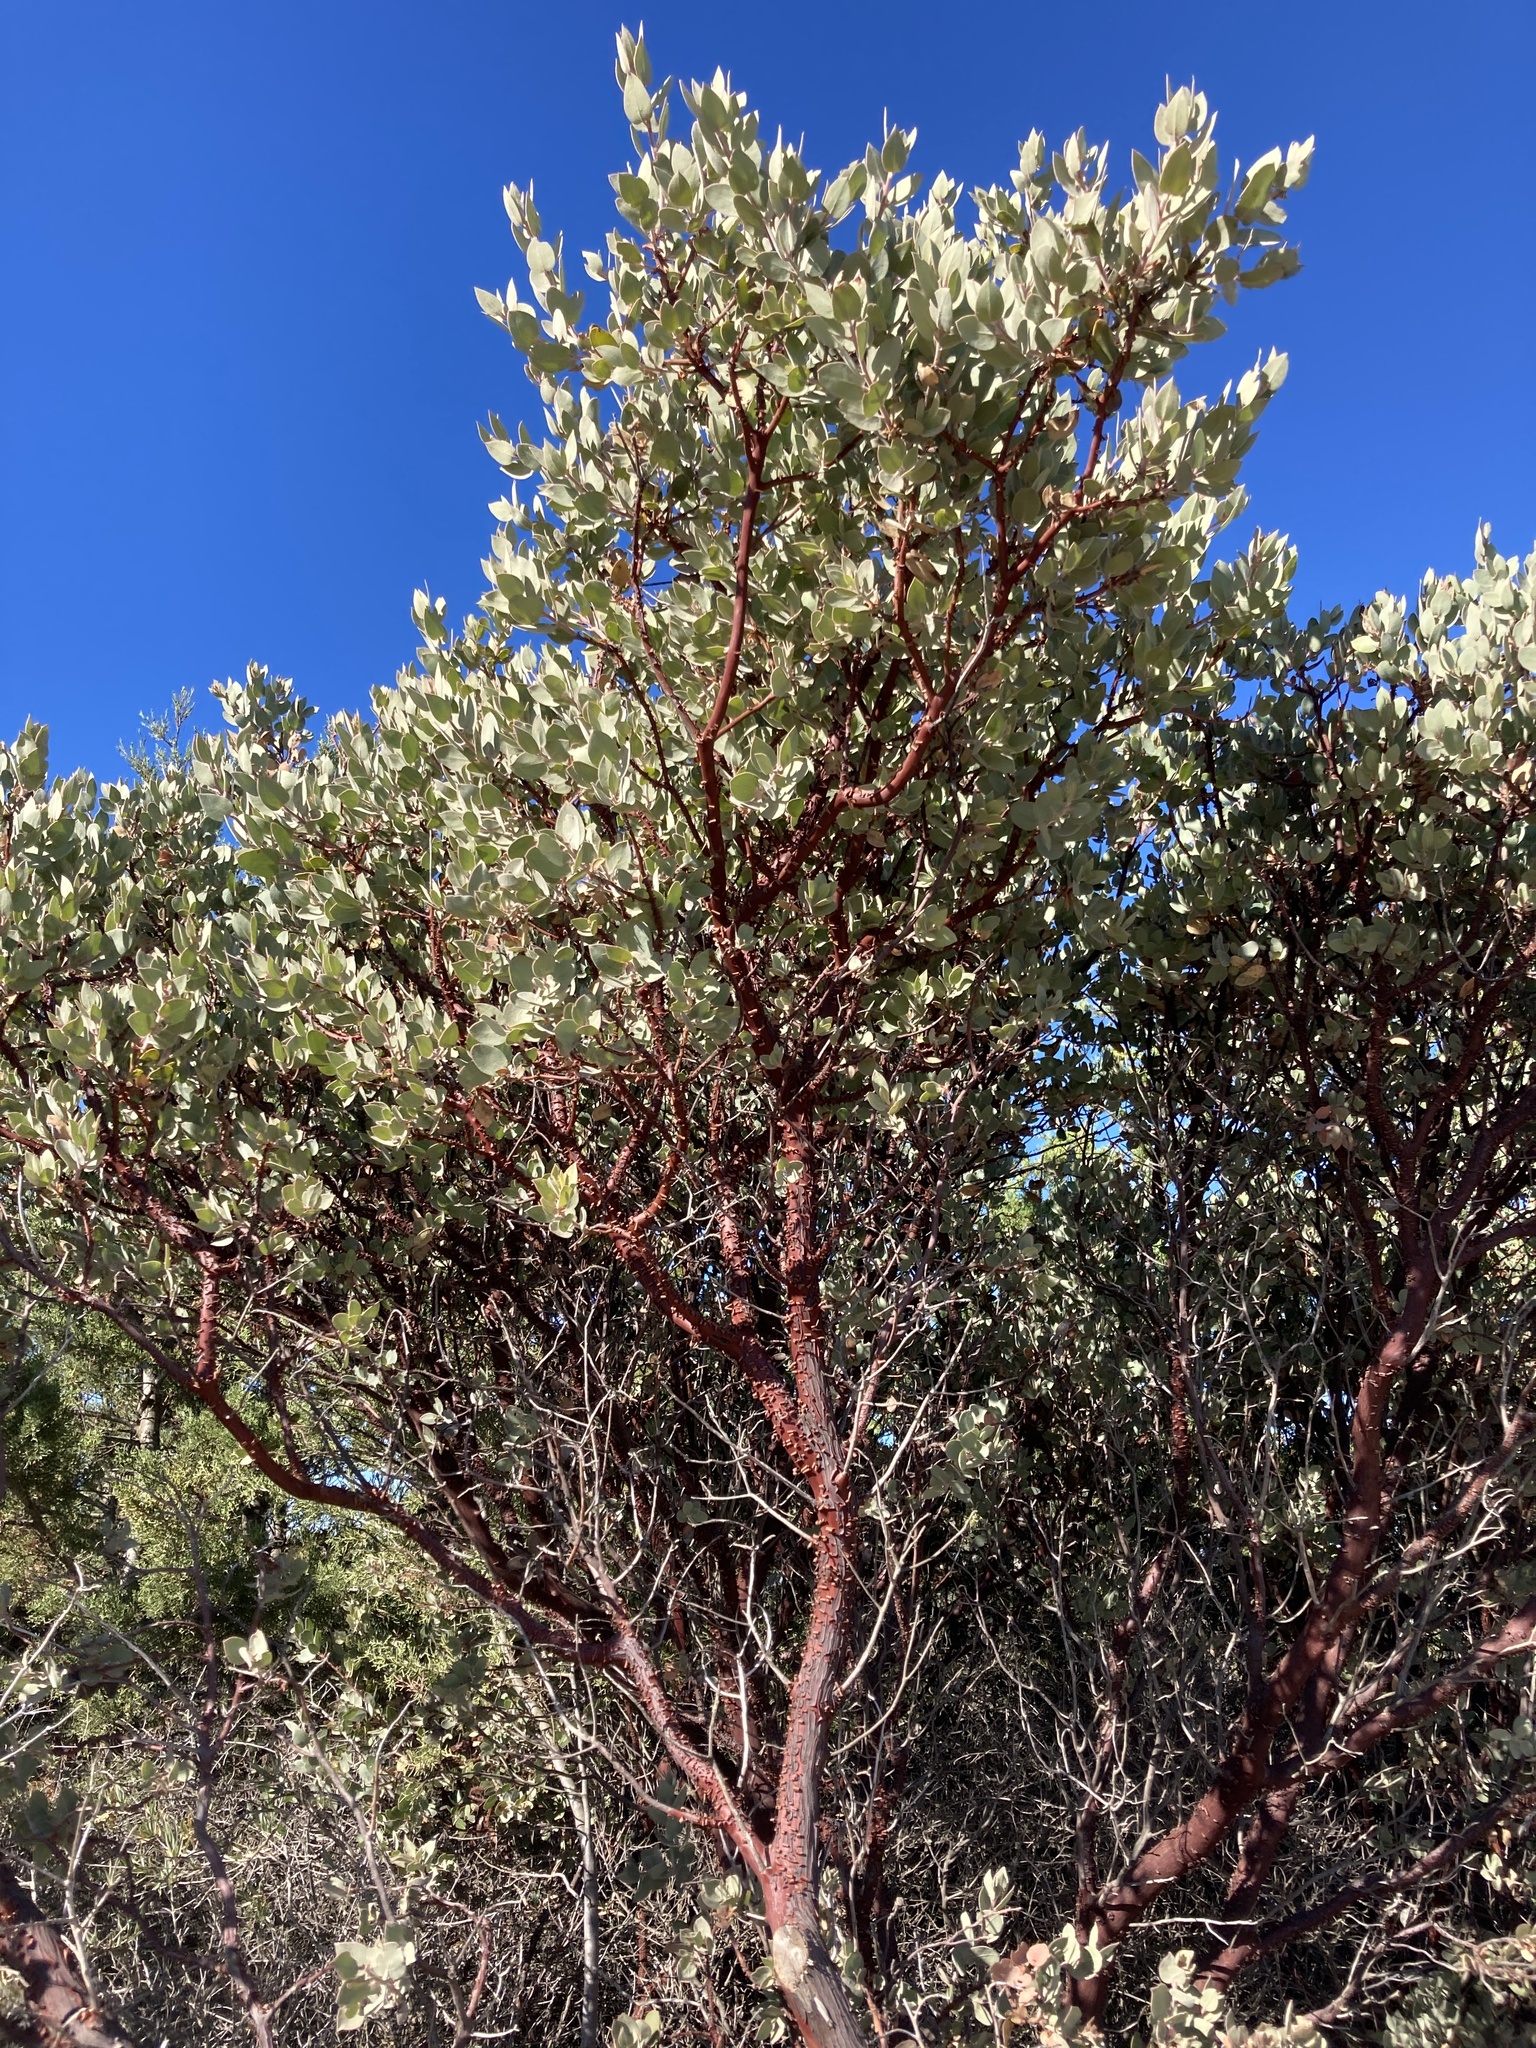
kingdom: Plantae
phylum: Tracheophyta
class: Magnoliopsida
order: Ericales
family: Ericaceae
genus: Arctostaphylos
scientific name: Arctostaphylos obispoensis
